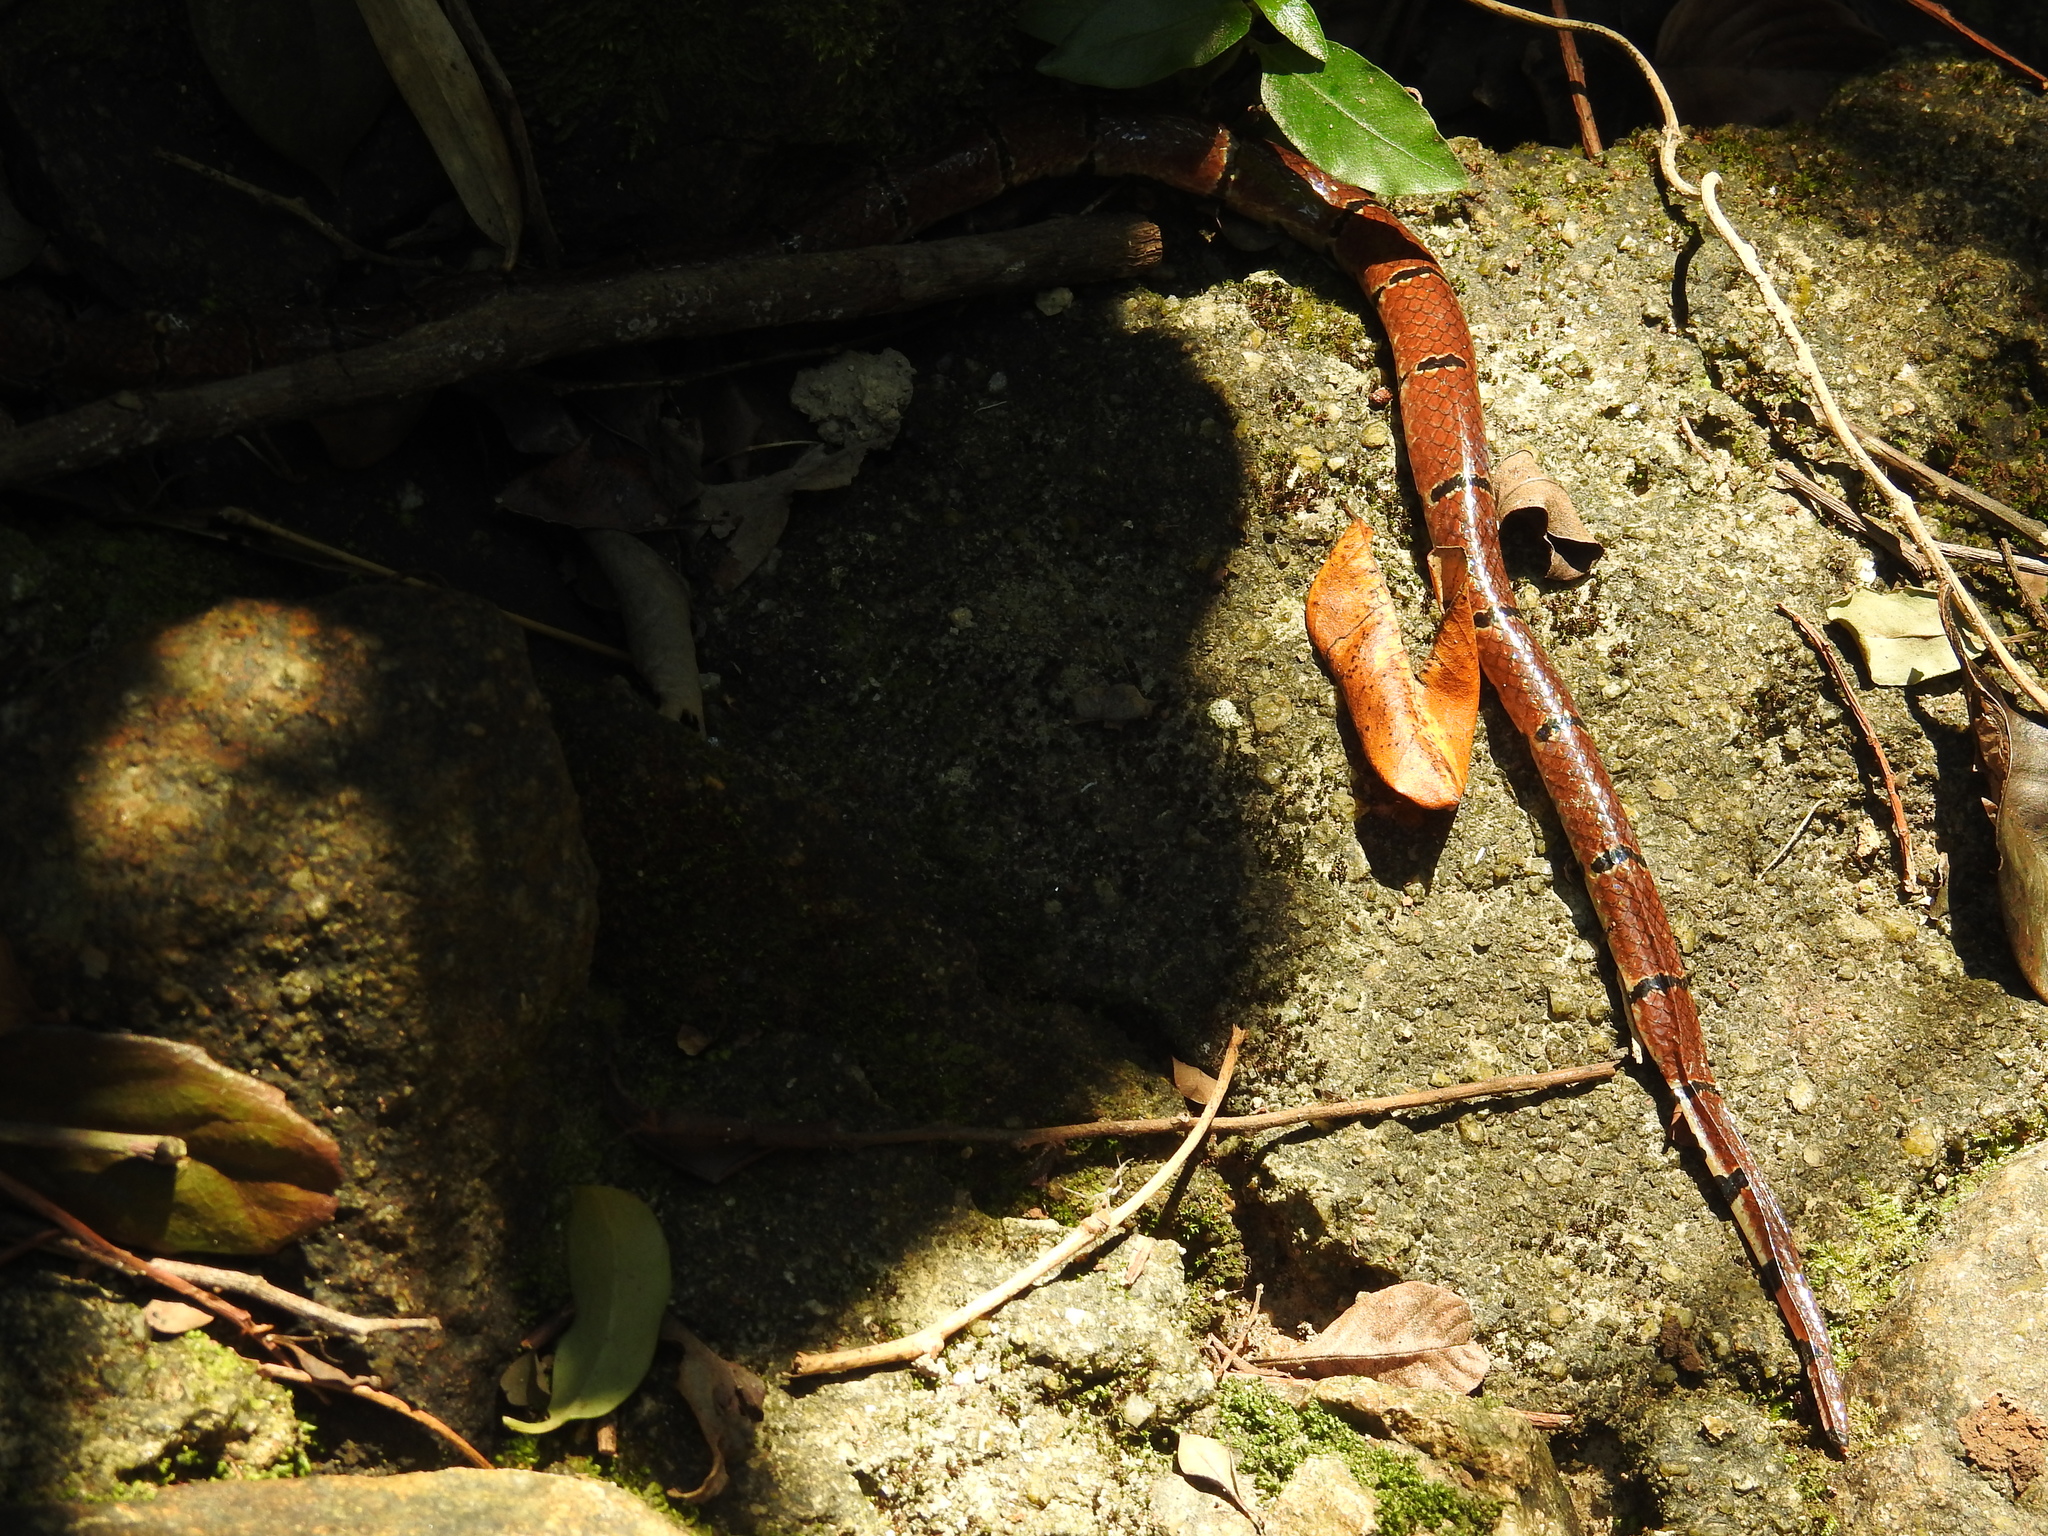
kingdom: Animalia
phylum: Chordata
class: Squamata
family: Elapidae
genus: Sinomicrurus
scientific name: Sinomicrurus
